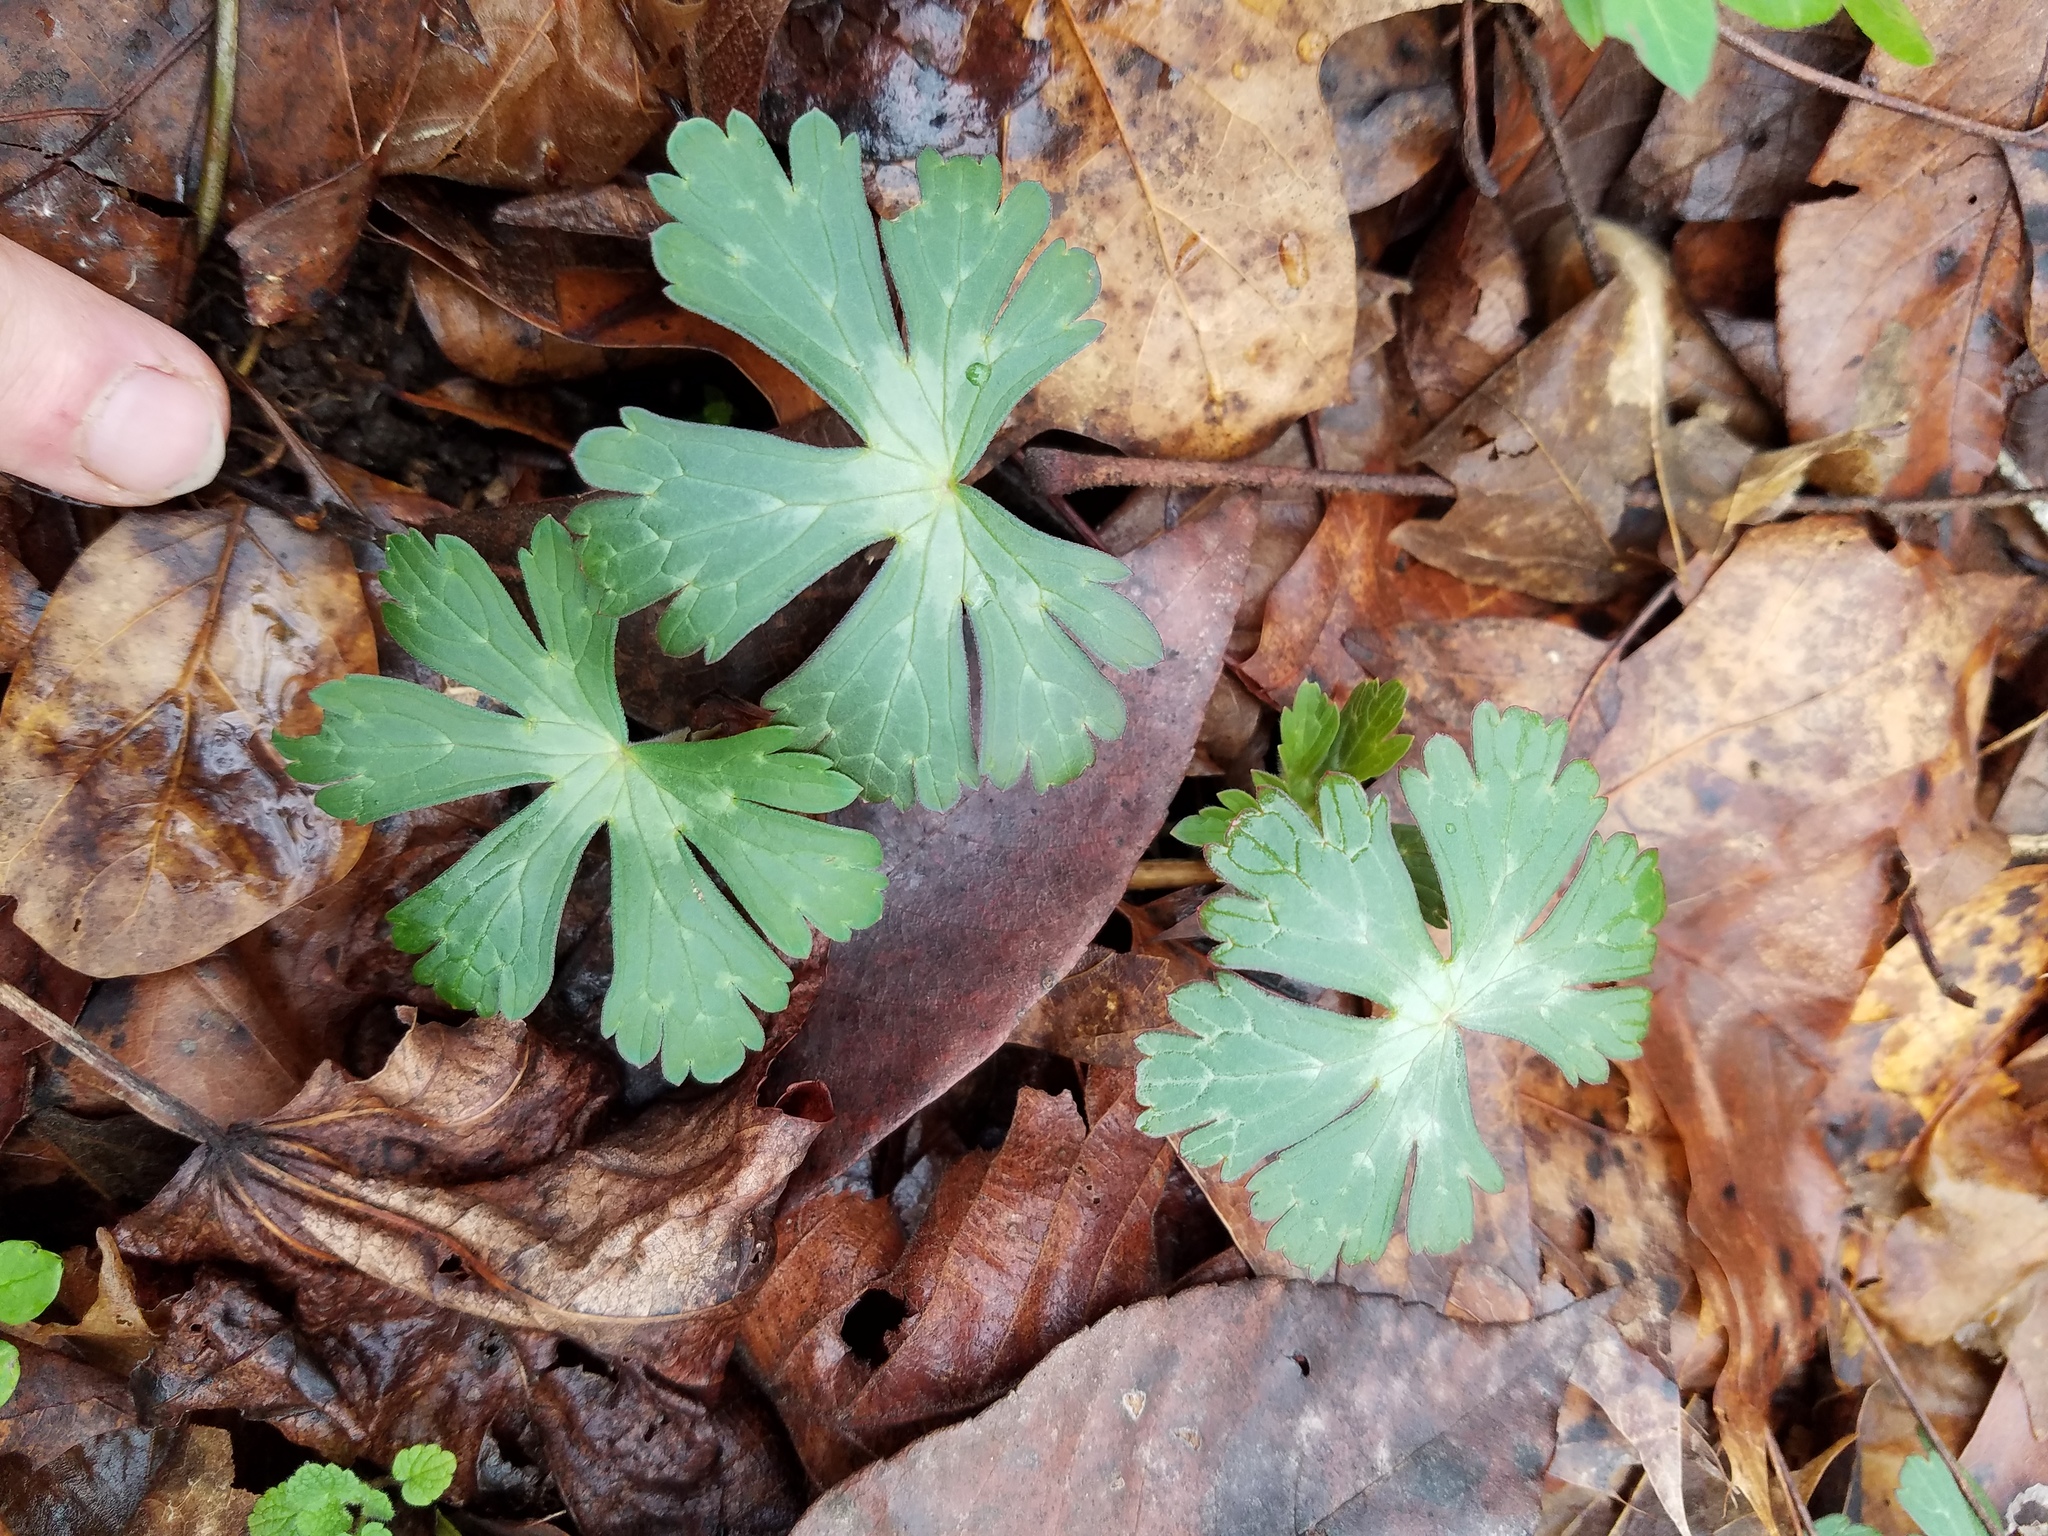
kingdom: Plantae
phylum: Tracheophyta
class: Magnoliopsida
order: Geraniales
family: Geraniaceae
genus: Geranium
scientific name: Geranium maculatum
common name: Spotted geranium
